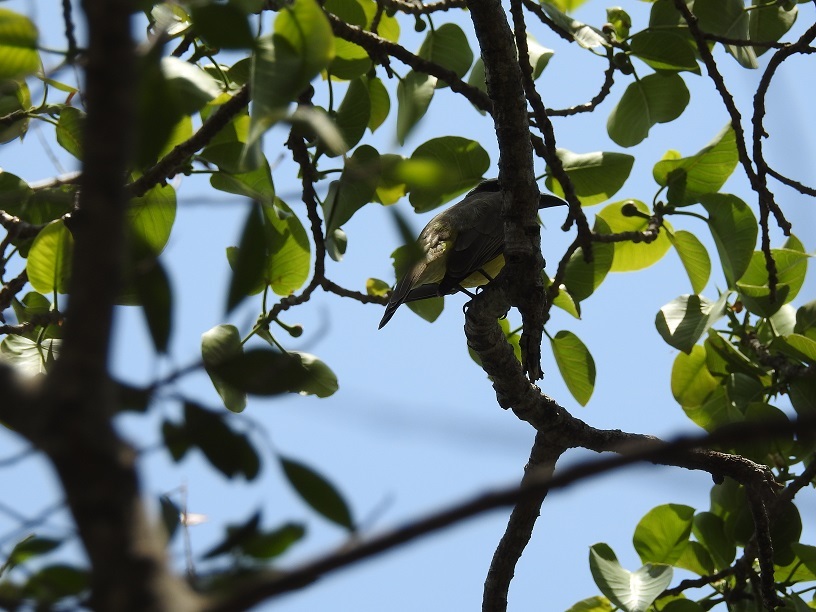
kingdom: Animalia
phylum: Chordata
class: Aves
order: Passeriformes
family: Tyrannidae
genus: Pitangus
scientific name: Pitangus sulphuratus
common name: Great kiskadee
